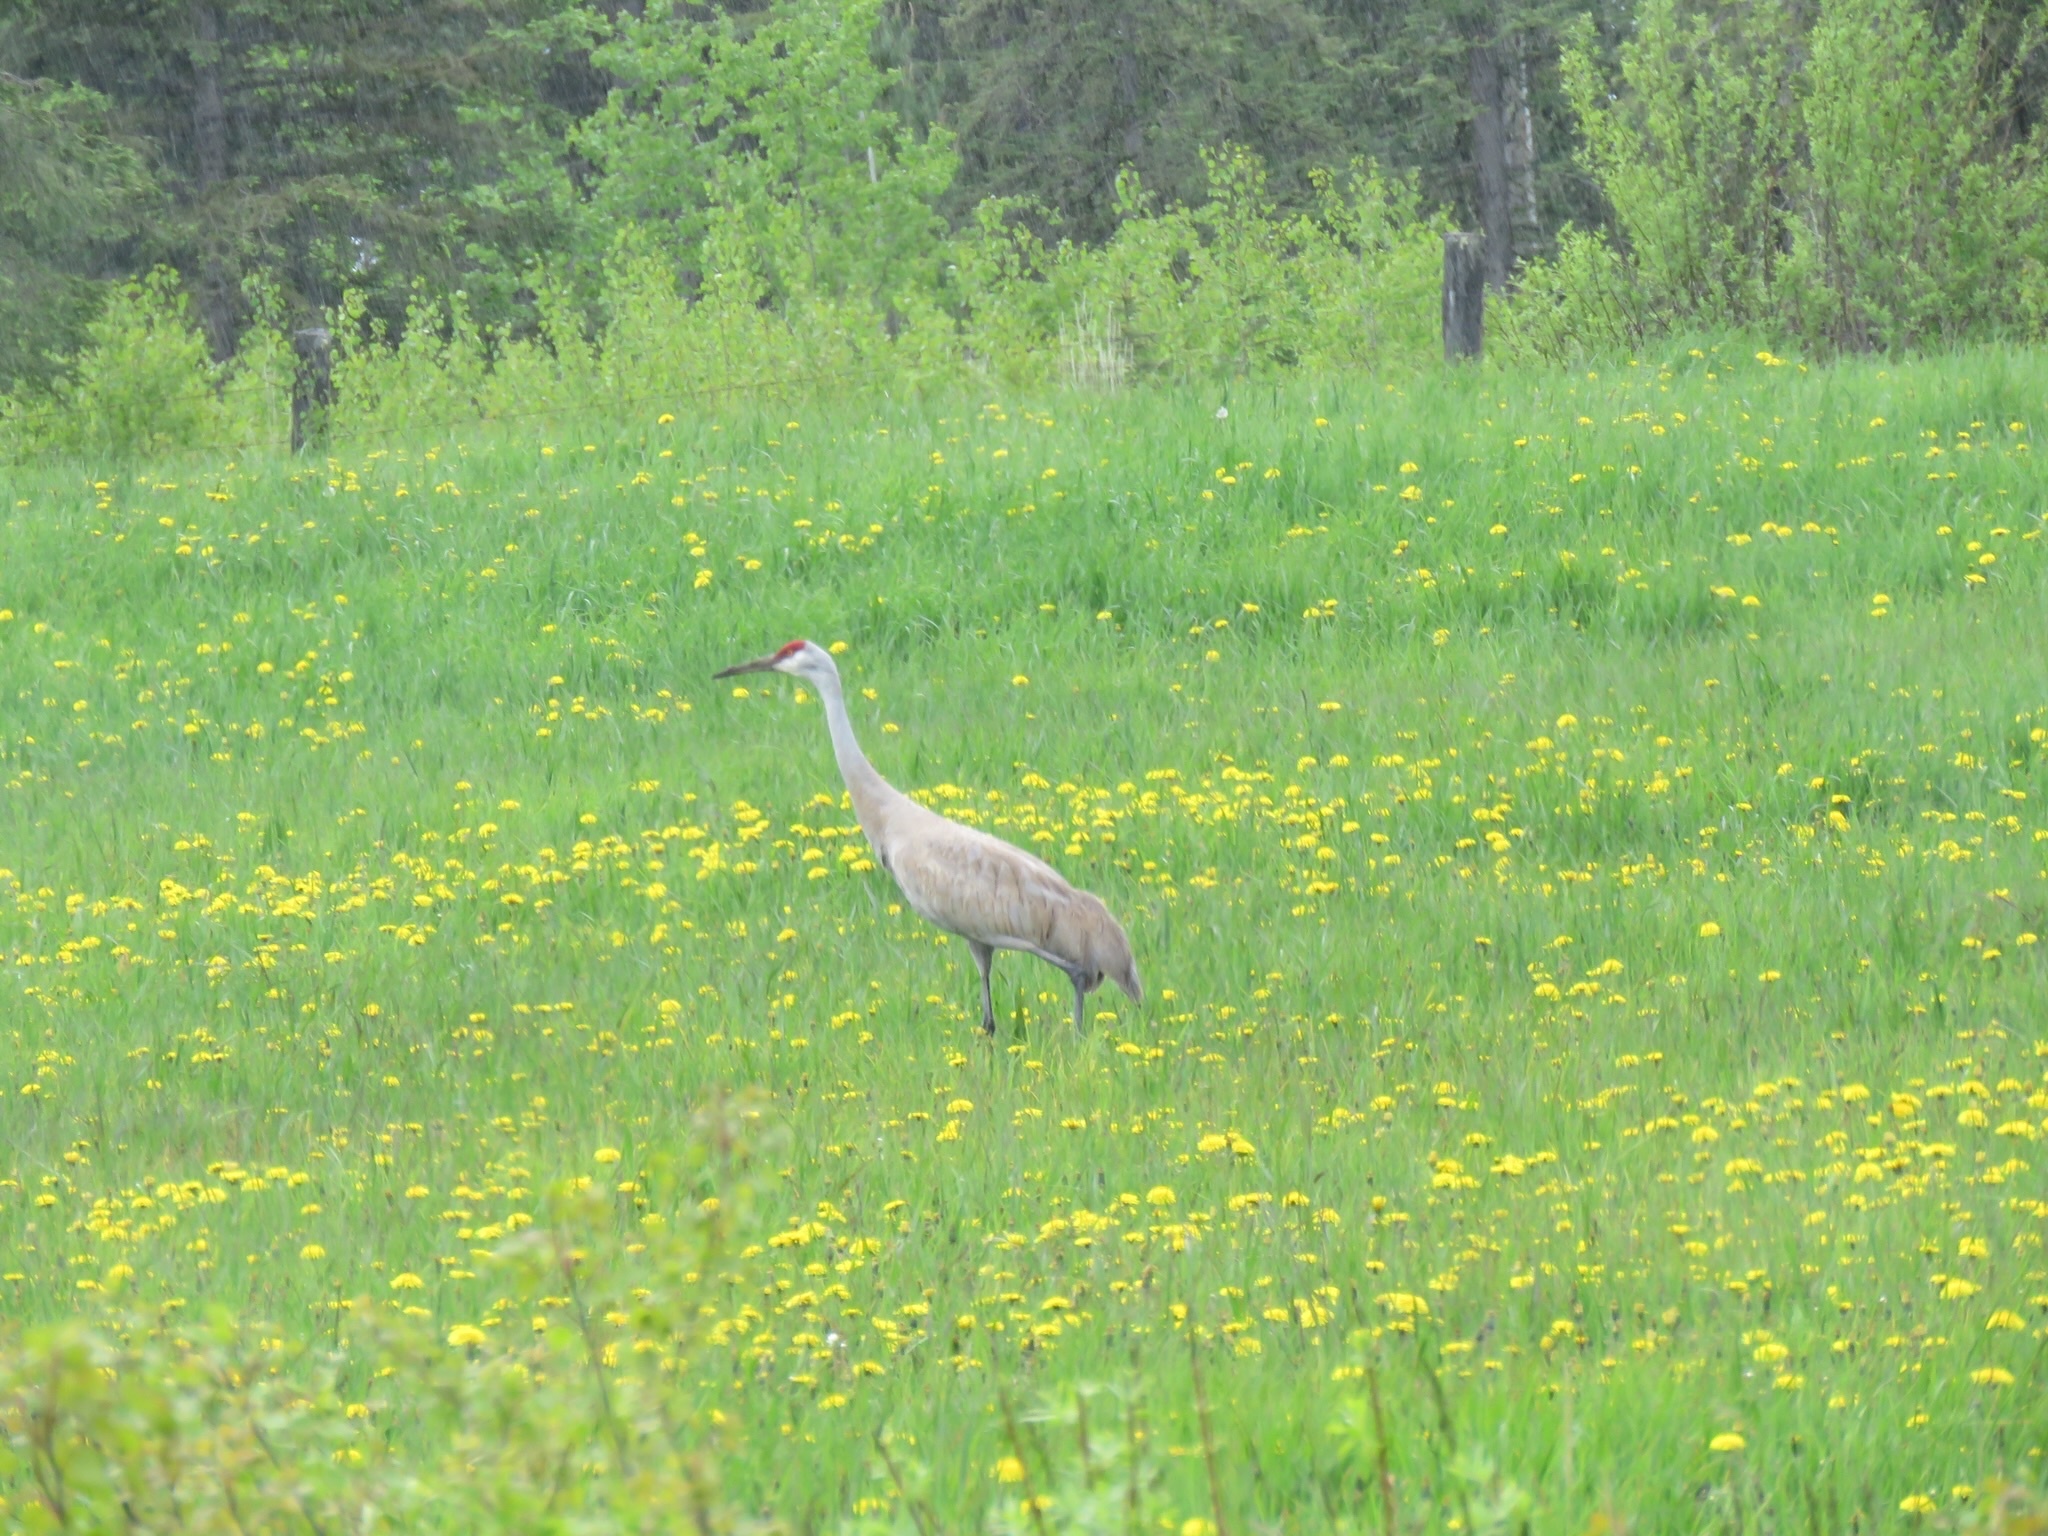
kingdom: Animalia
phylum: Chordata
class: Aves
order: Gruiformes
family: Gruidae
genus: Grus
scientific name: Grus canadensis
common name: Sandhill crane
